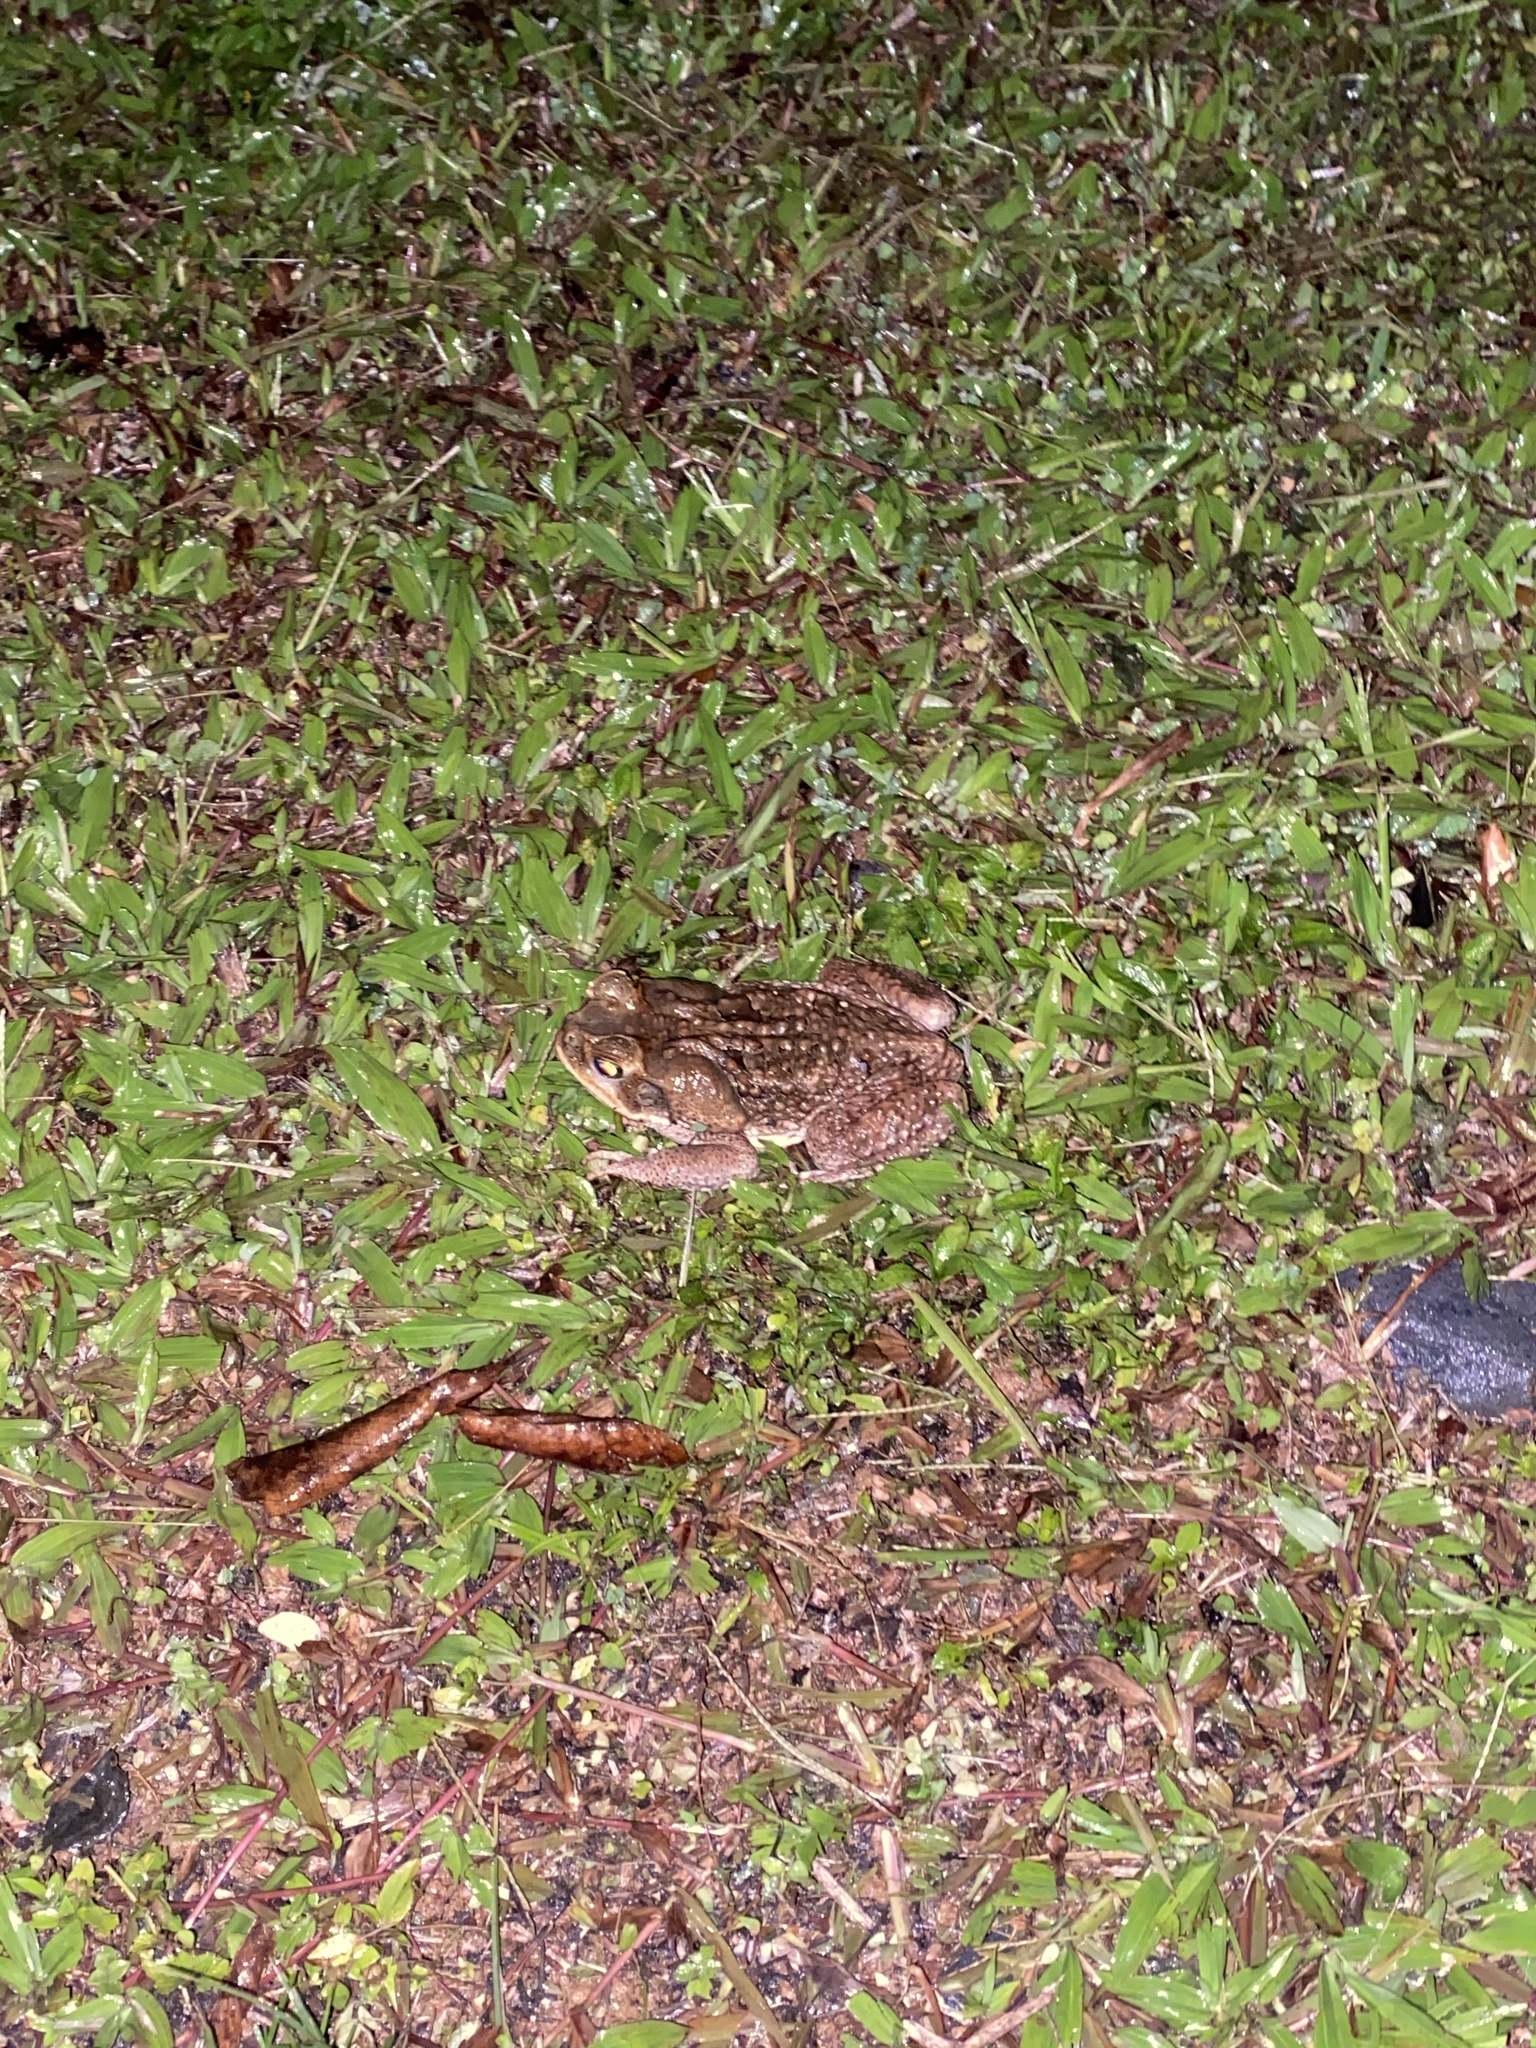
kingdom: Animalia
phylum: Chordata
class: Amphibia
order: Anura
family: Bufonidae
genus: Rhinella
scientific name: Rhinella marina
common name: Cane toad
